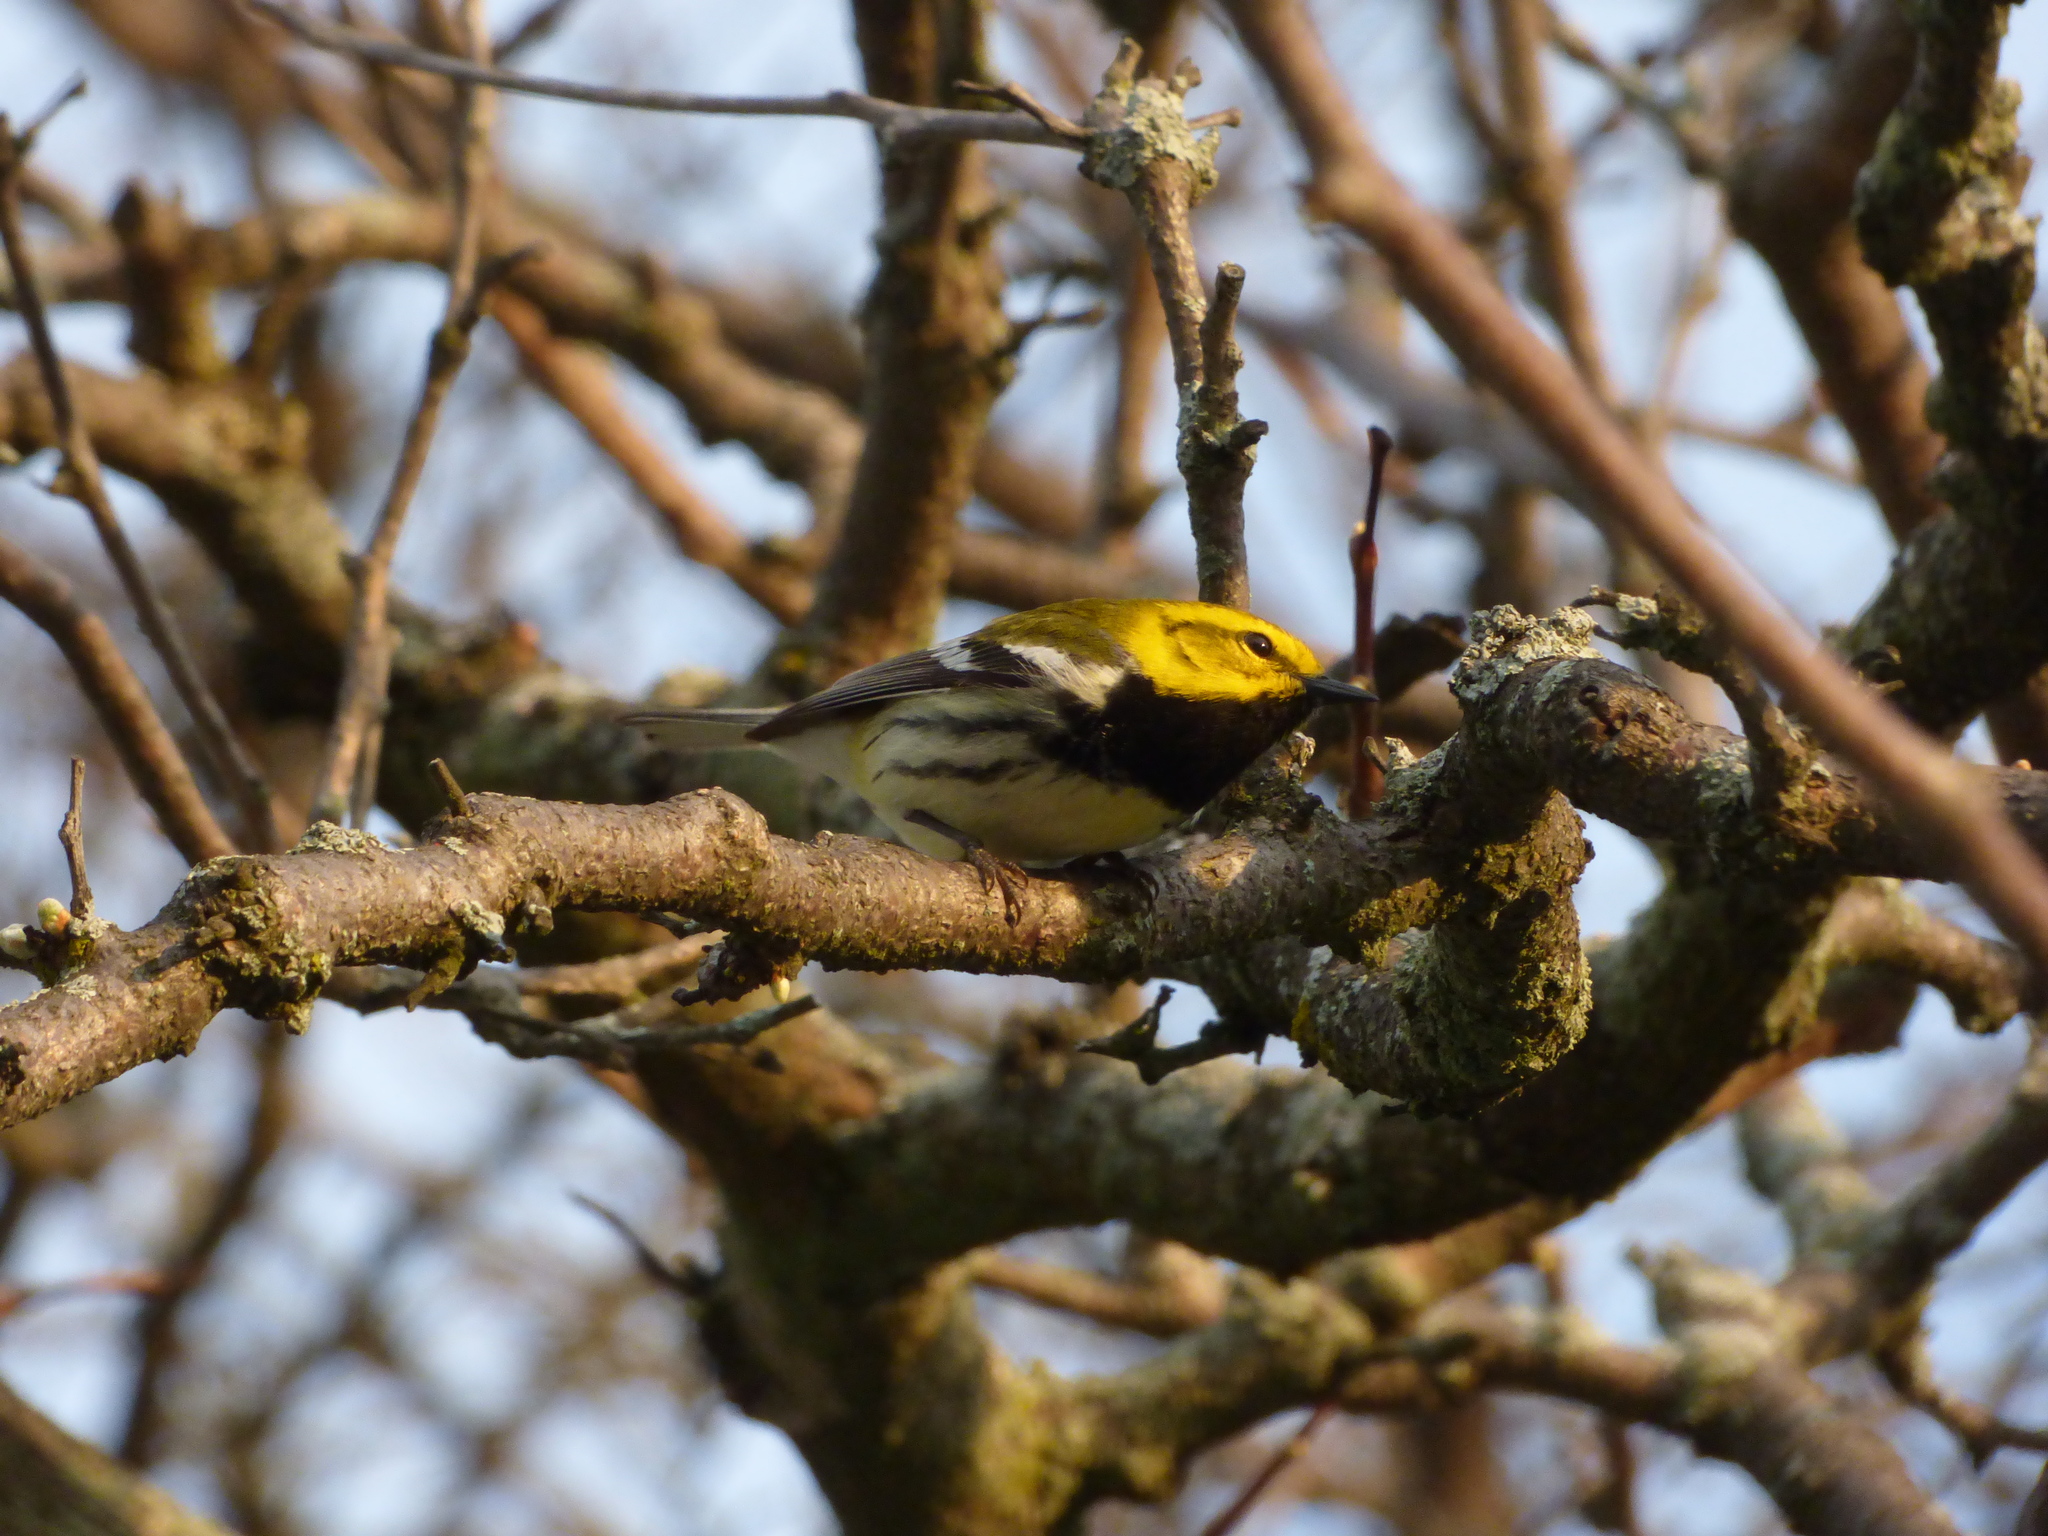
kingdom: Animalia
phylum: Chordata
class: Aves
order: Passeriformes
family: Parulidae
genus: Setophaga
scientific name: Setophaga virens
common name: Black-throated green warbler
